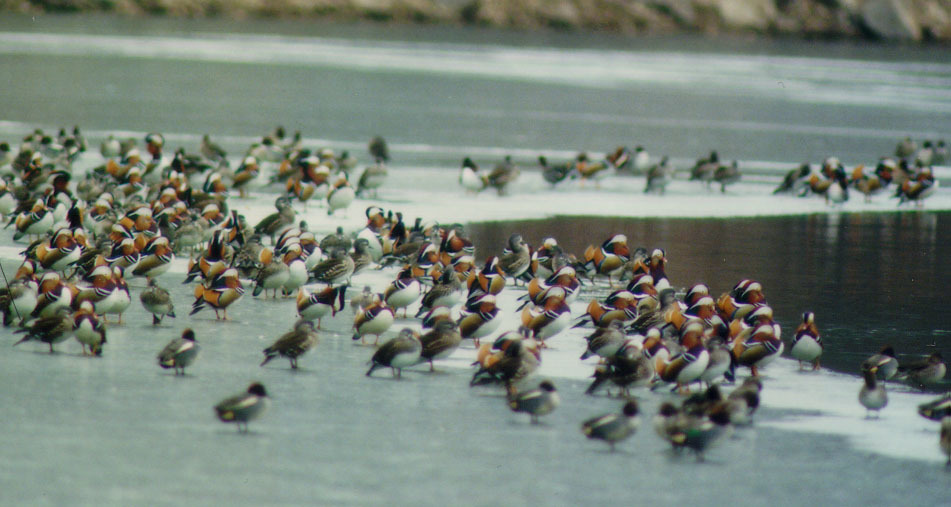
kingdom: Animalia
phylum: Chordata
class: Aves
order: Anseriformes
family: Anatidae
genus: Aix
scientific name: Aix galericulata
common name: Mandarin duck
